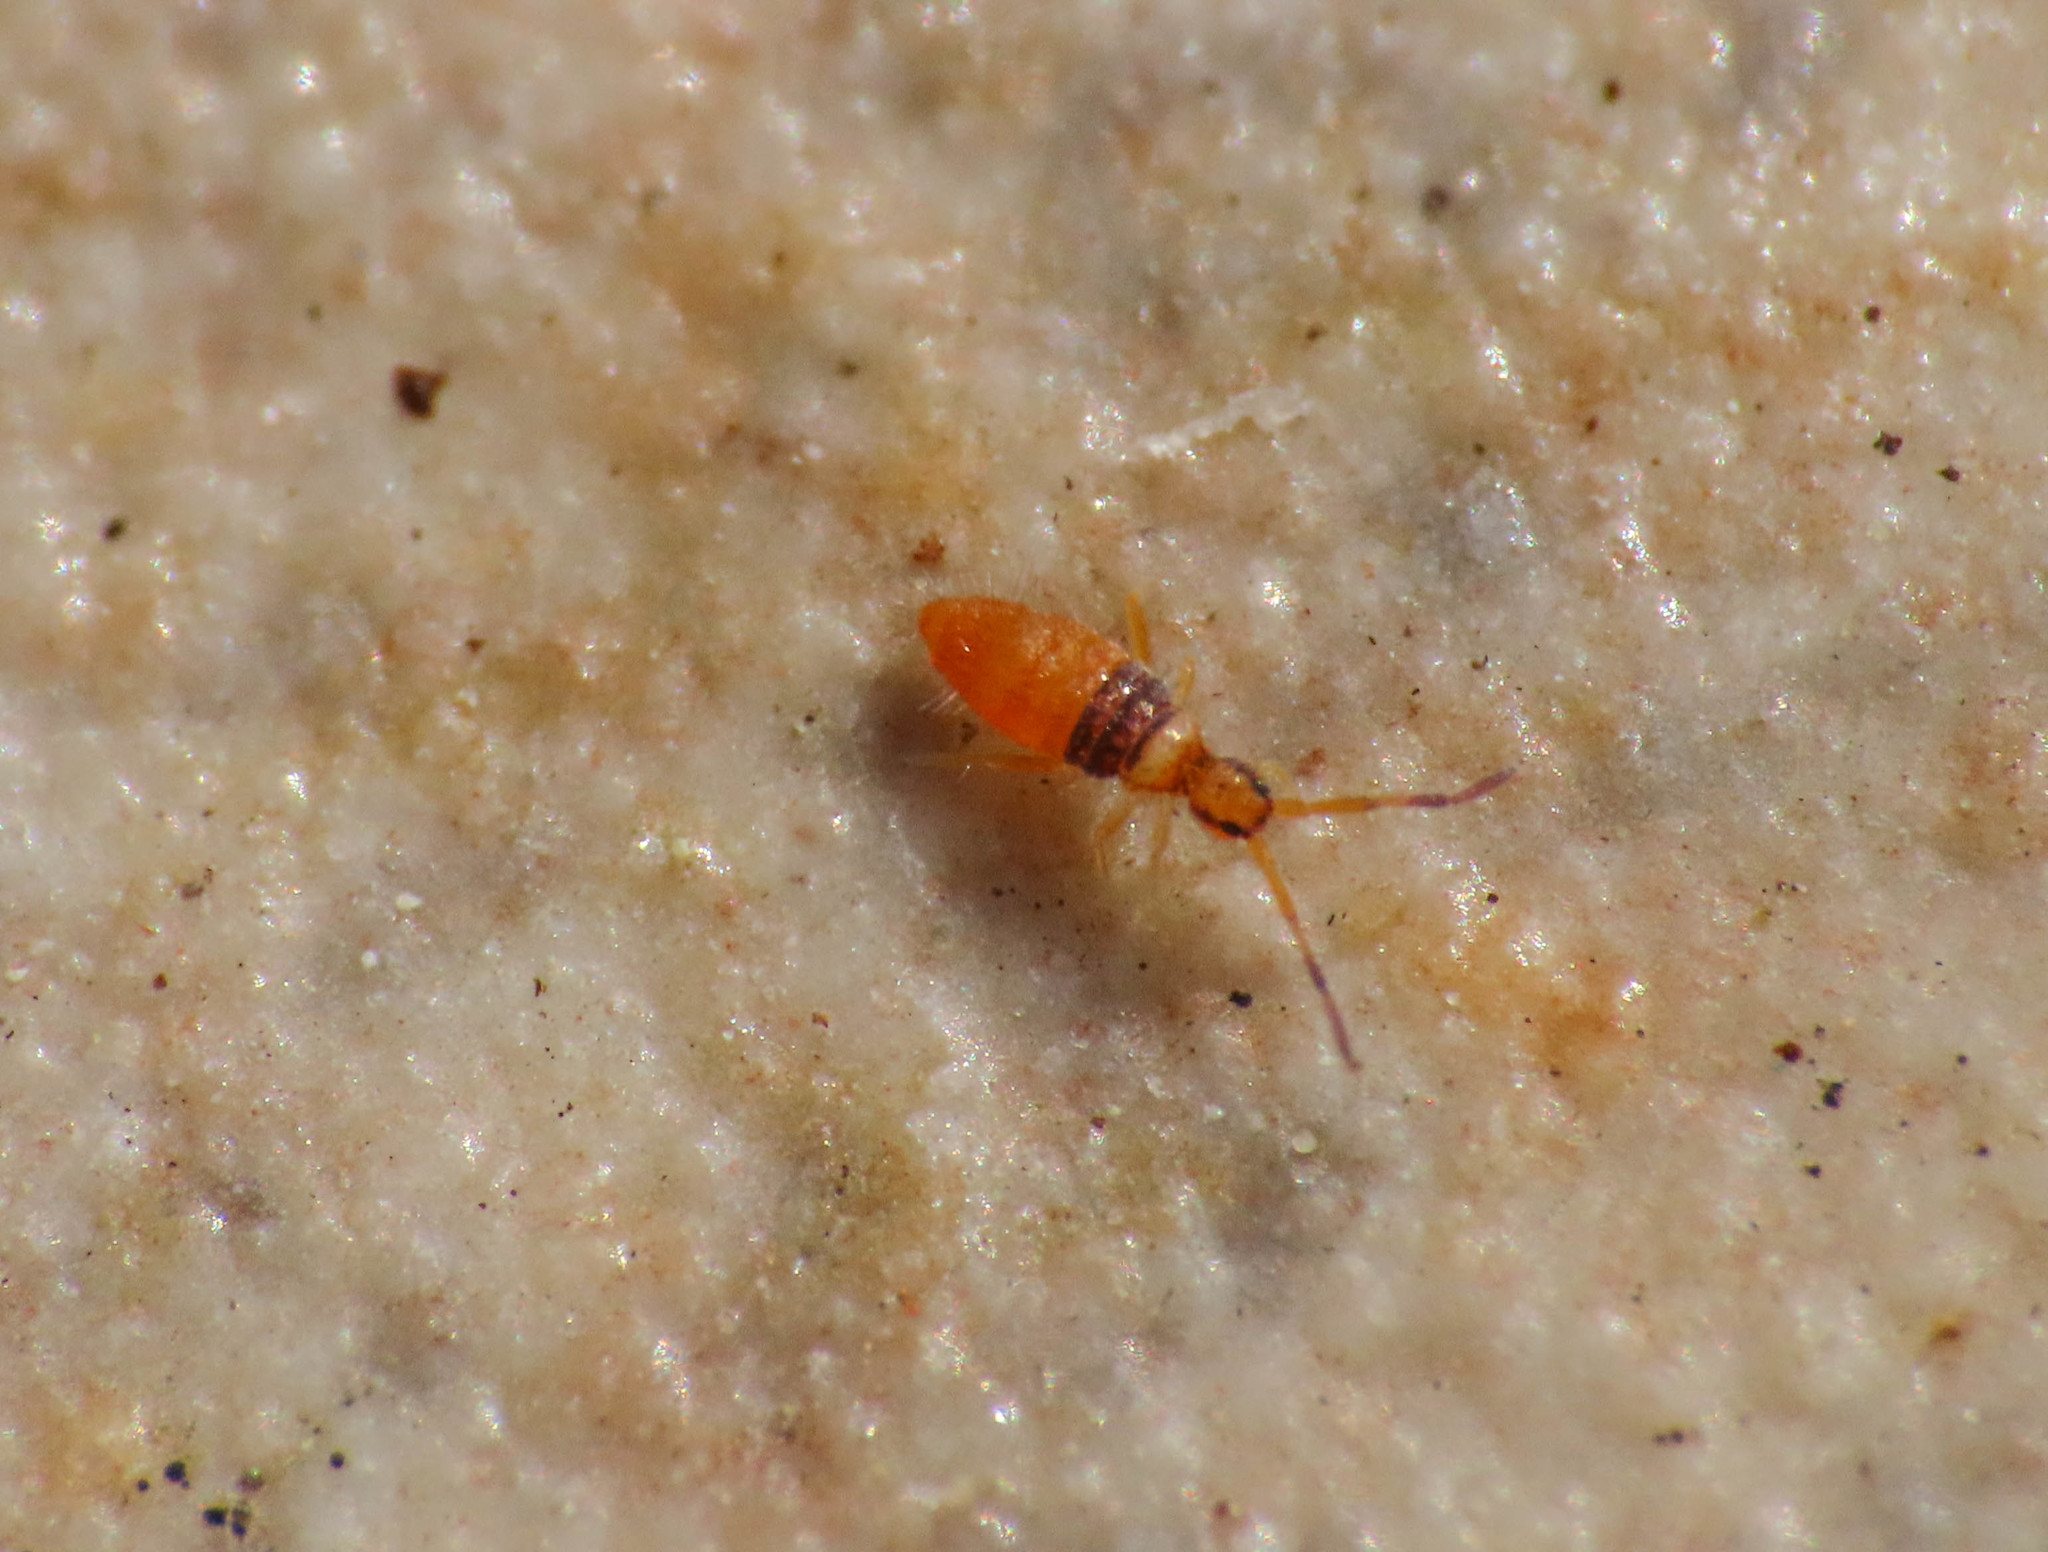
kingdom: Animalia
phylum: Arthropoda
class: Collembola
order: Entomobryomorpha
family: Entomobryidae
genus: Entomobrya
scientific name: Entomobrya nigrocincta
